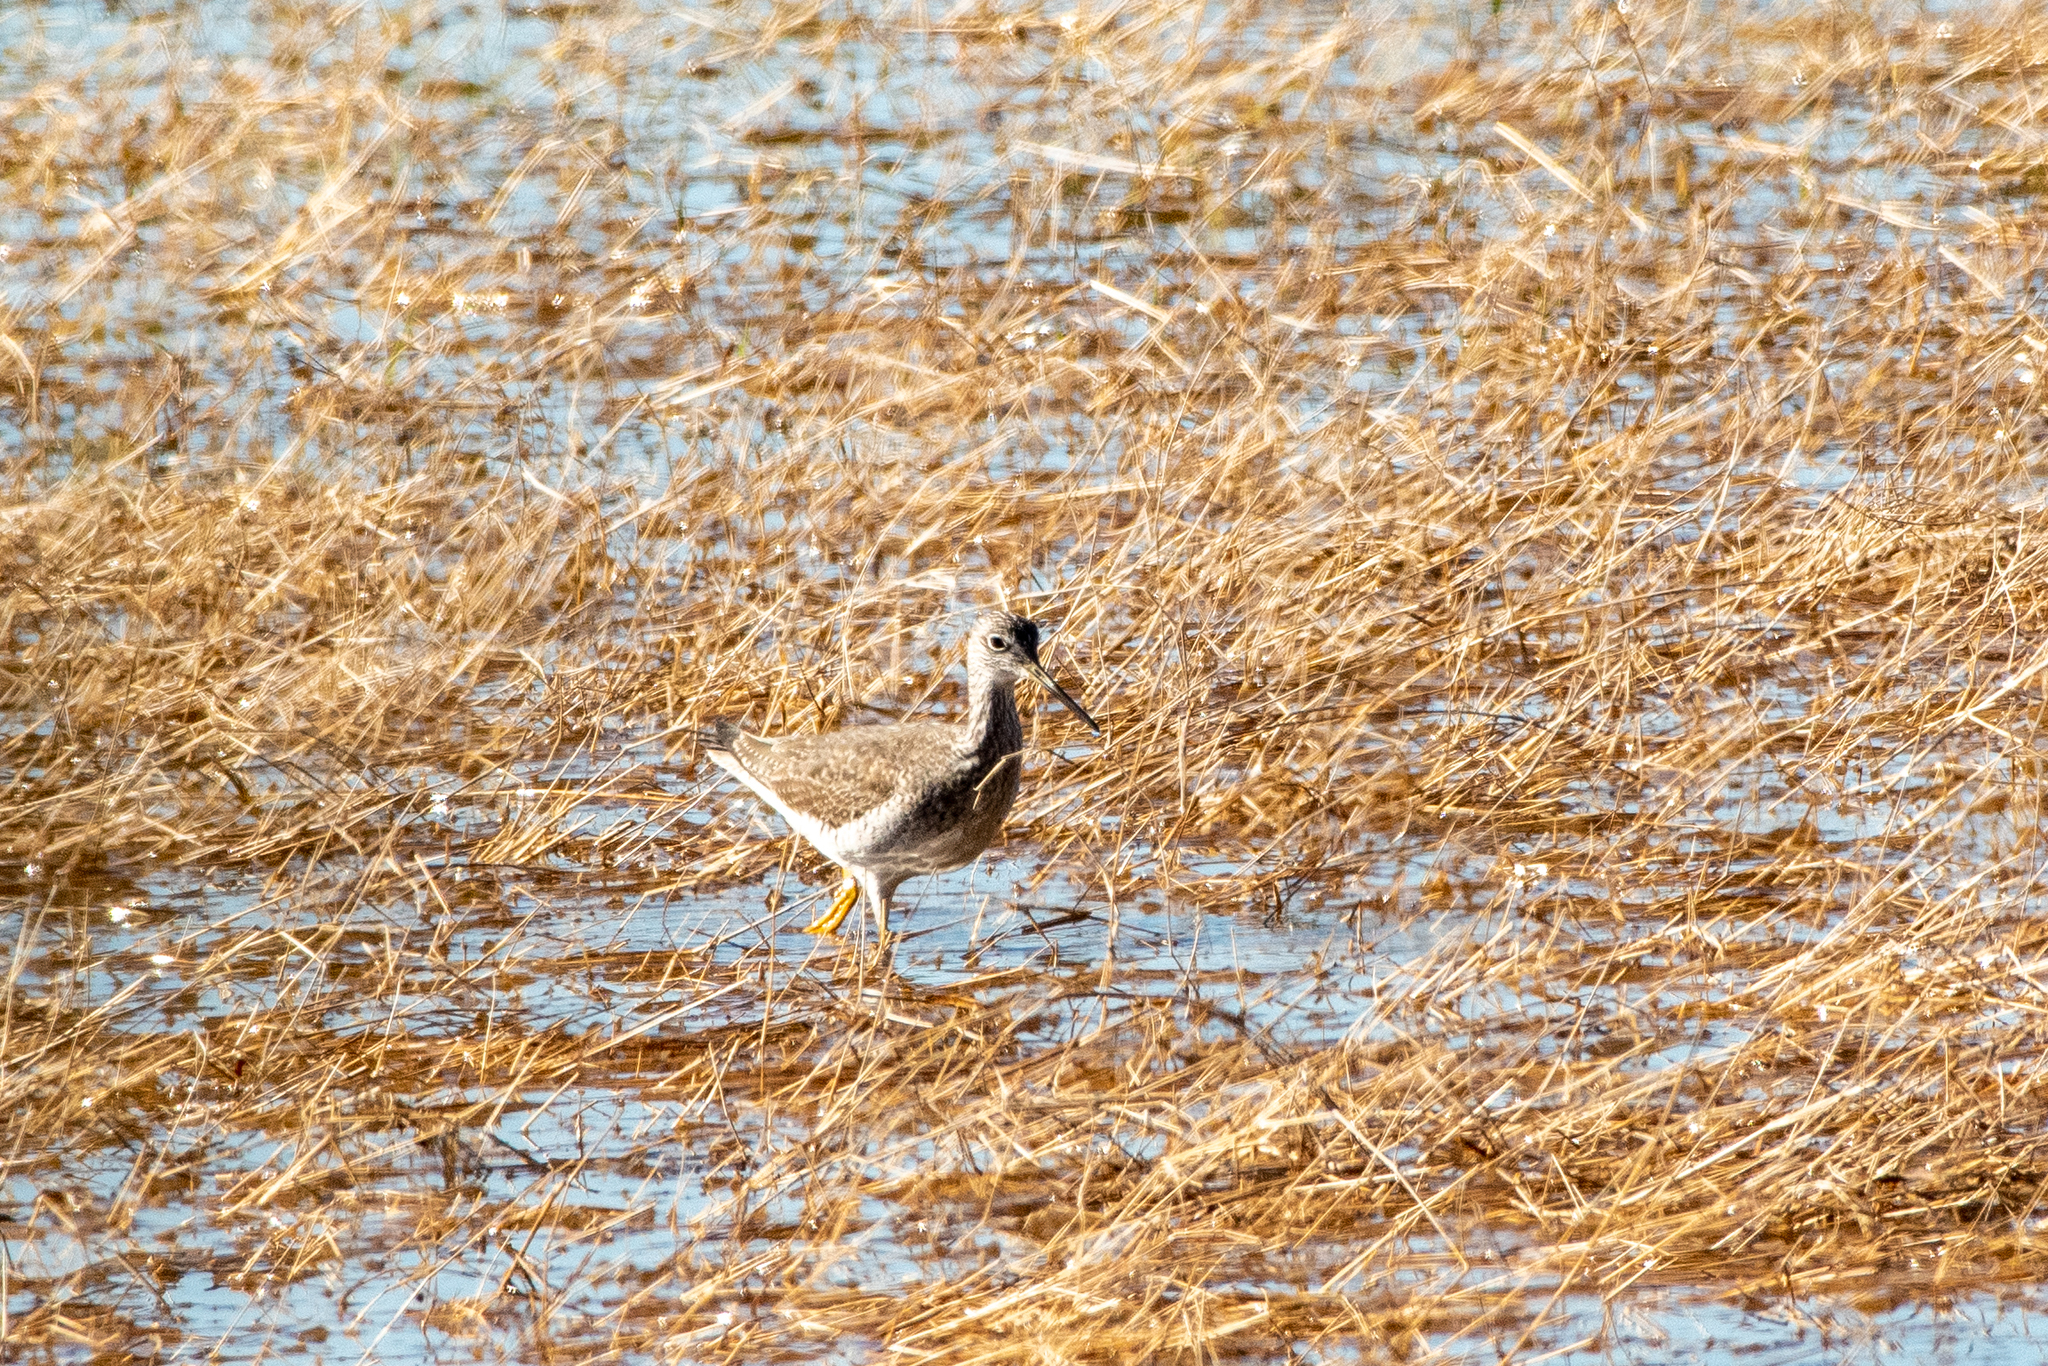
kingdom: Animalia
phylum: Chordata
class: Aves
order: Charadriiformes
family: Scolopacidae
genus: Tringa
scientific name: Tringa melanoleuca
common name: Greater yellowlegs
